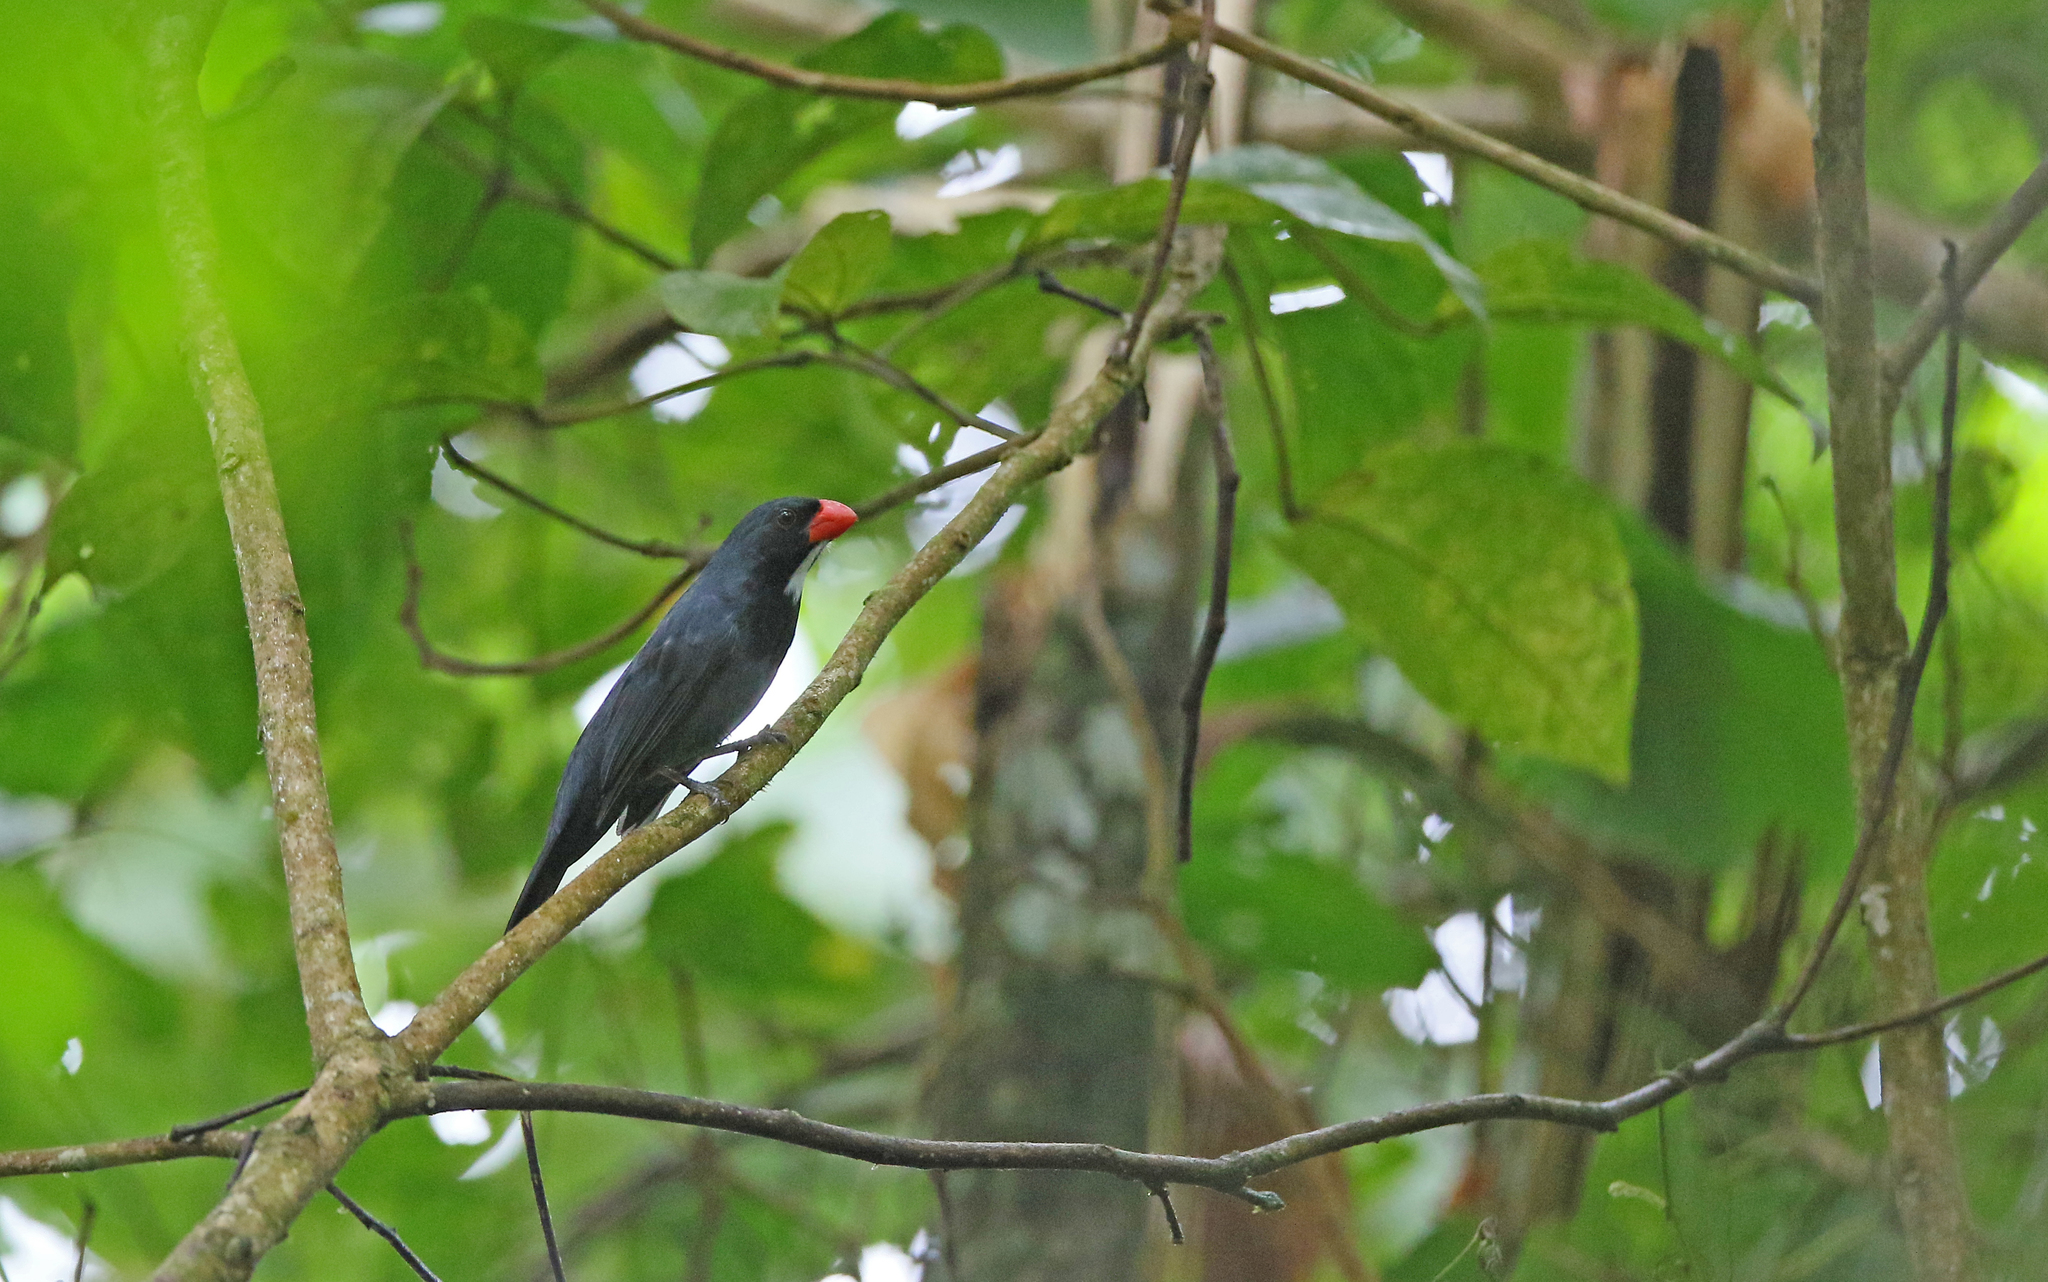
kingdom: Animalia
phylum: Chordata
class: Aves
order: Passeriformes
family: Thraupidae
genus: Saltator
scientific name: Saltator grossus
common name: Slate-colored grosbeak
